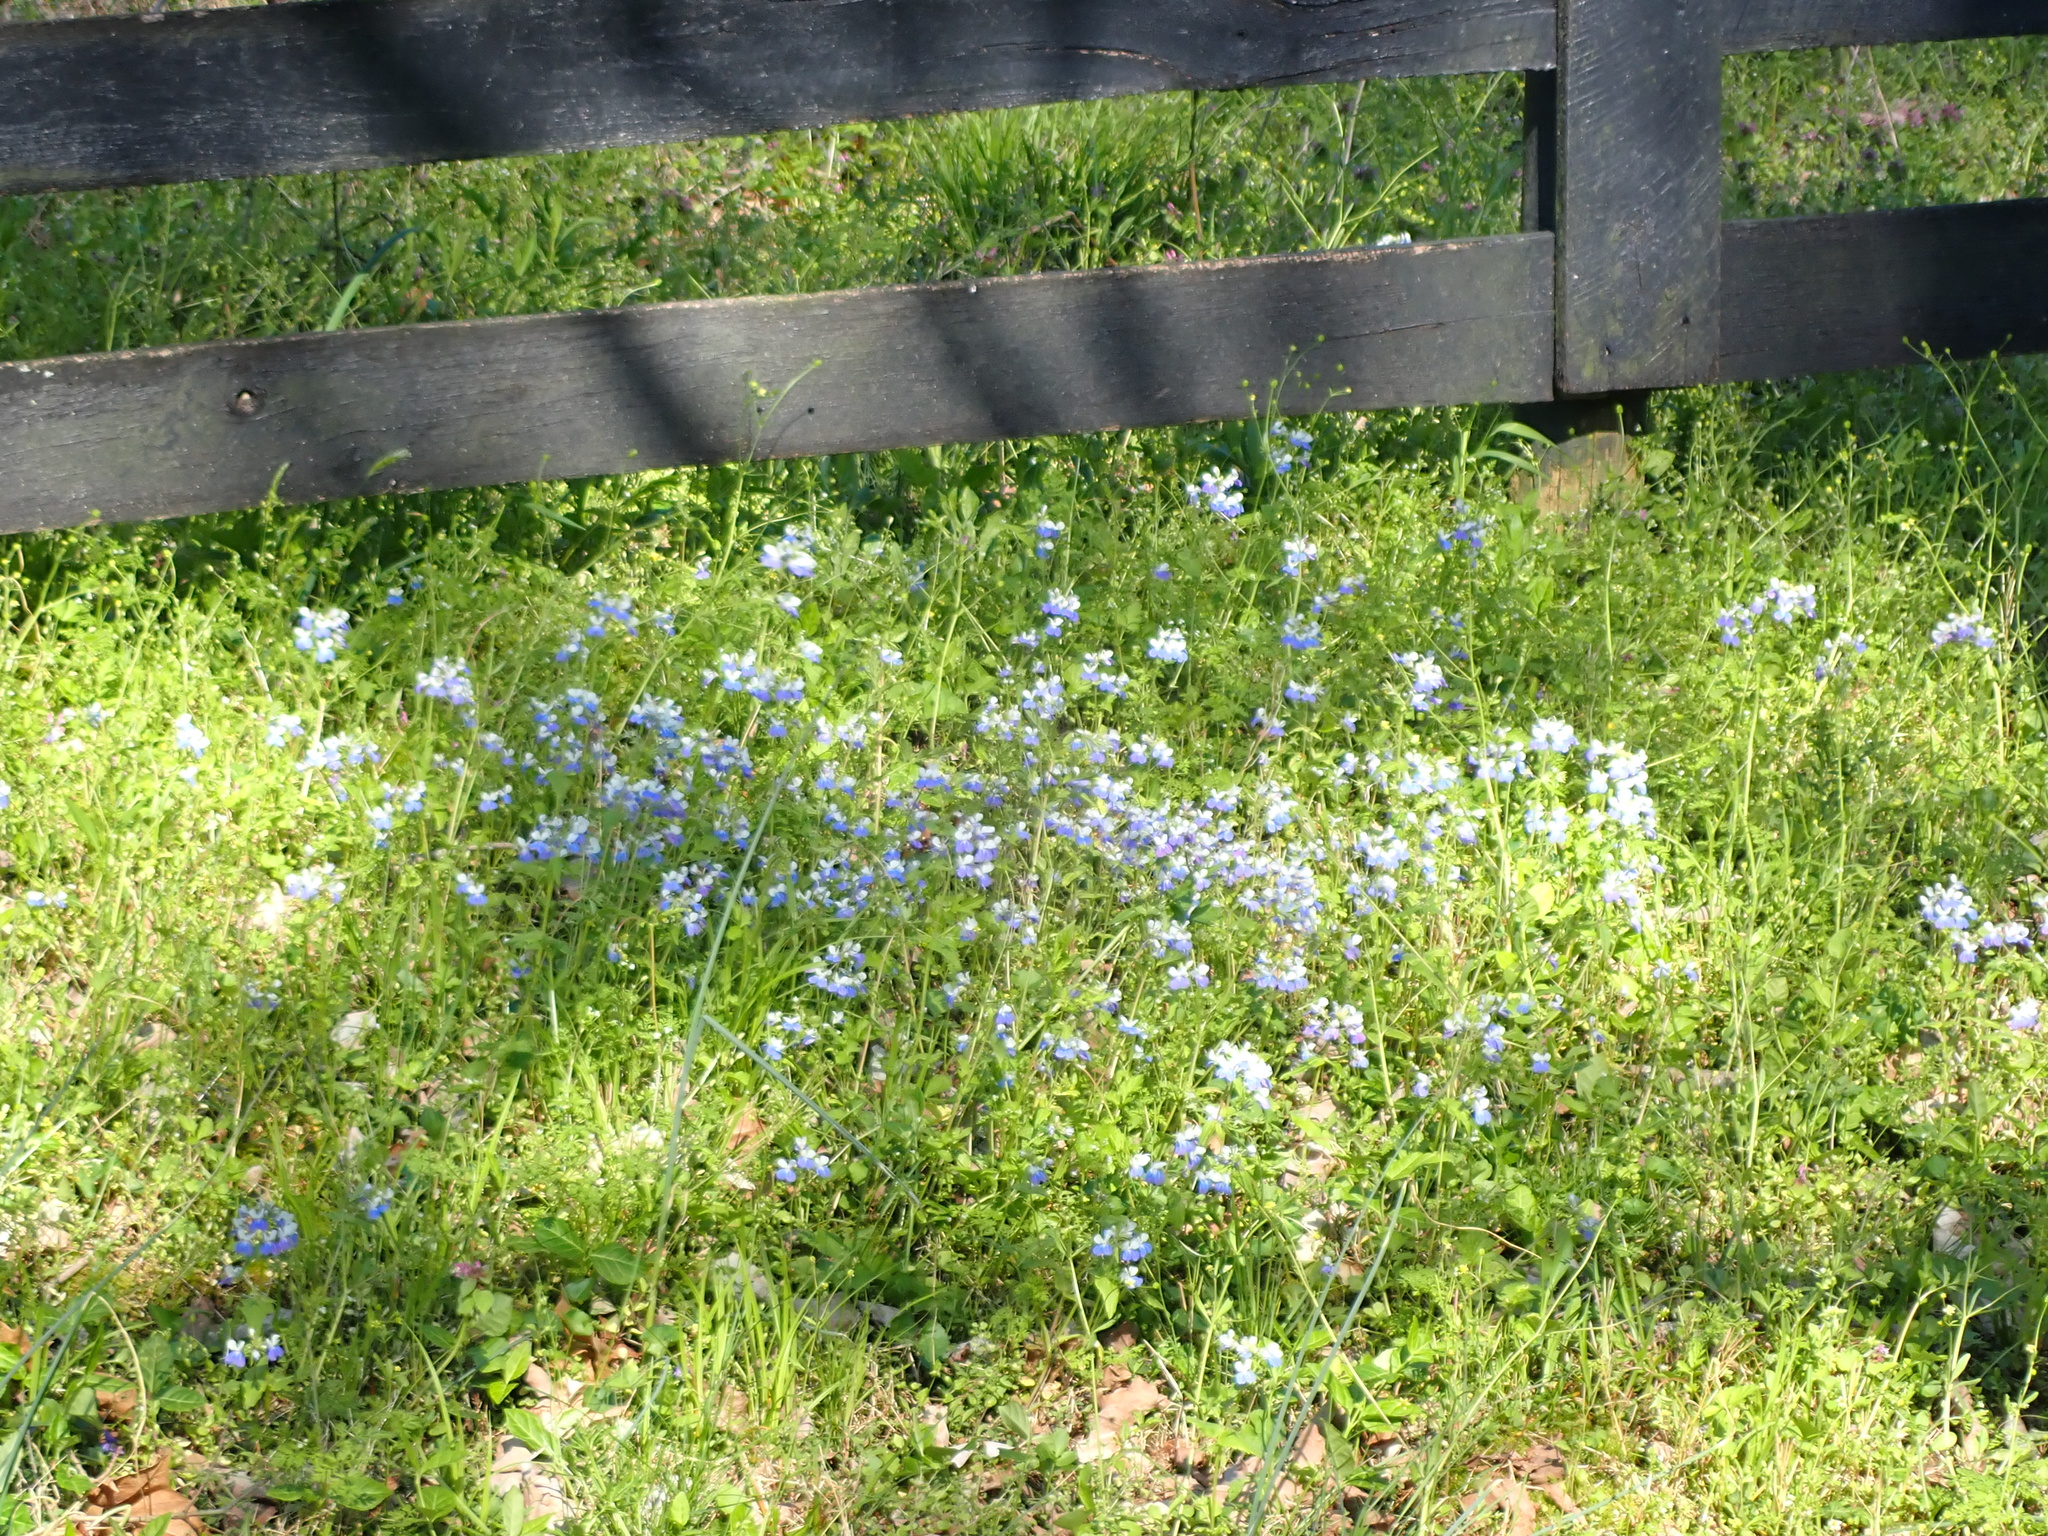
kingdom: Plantae
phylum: Tracheophyta
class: Magnoliopsida
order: Lamiales
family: Plantaginaceae
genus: Collinsia
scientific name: Collinsia verna
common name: Broad-leaved collinsia
